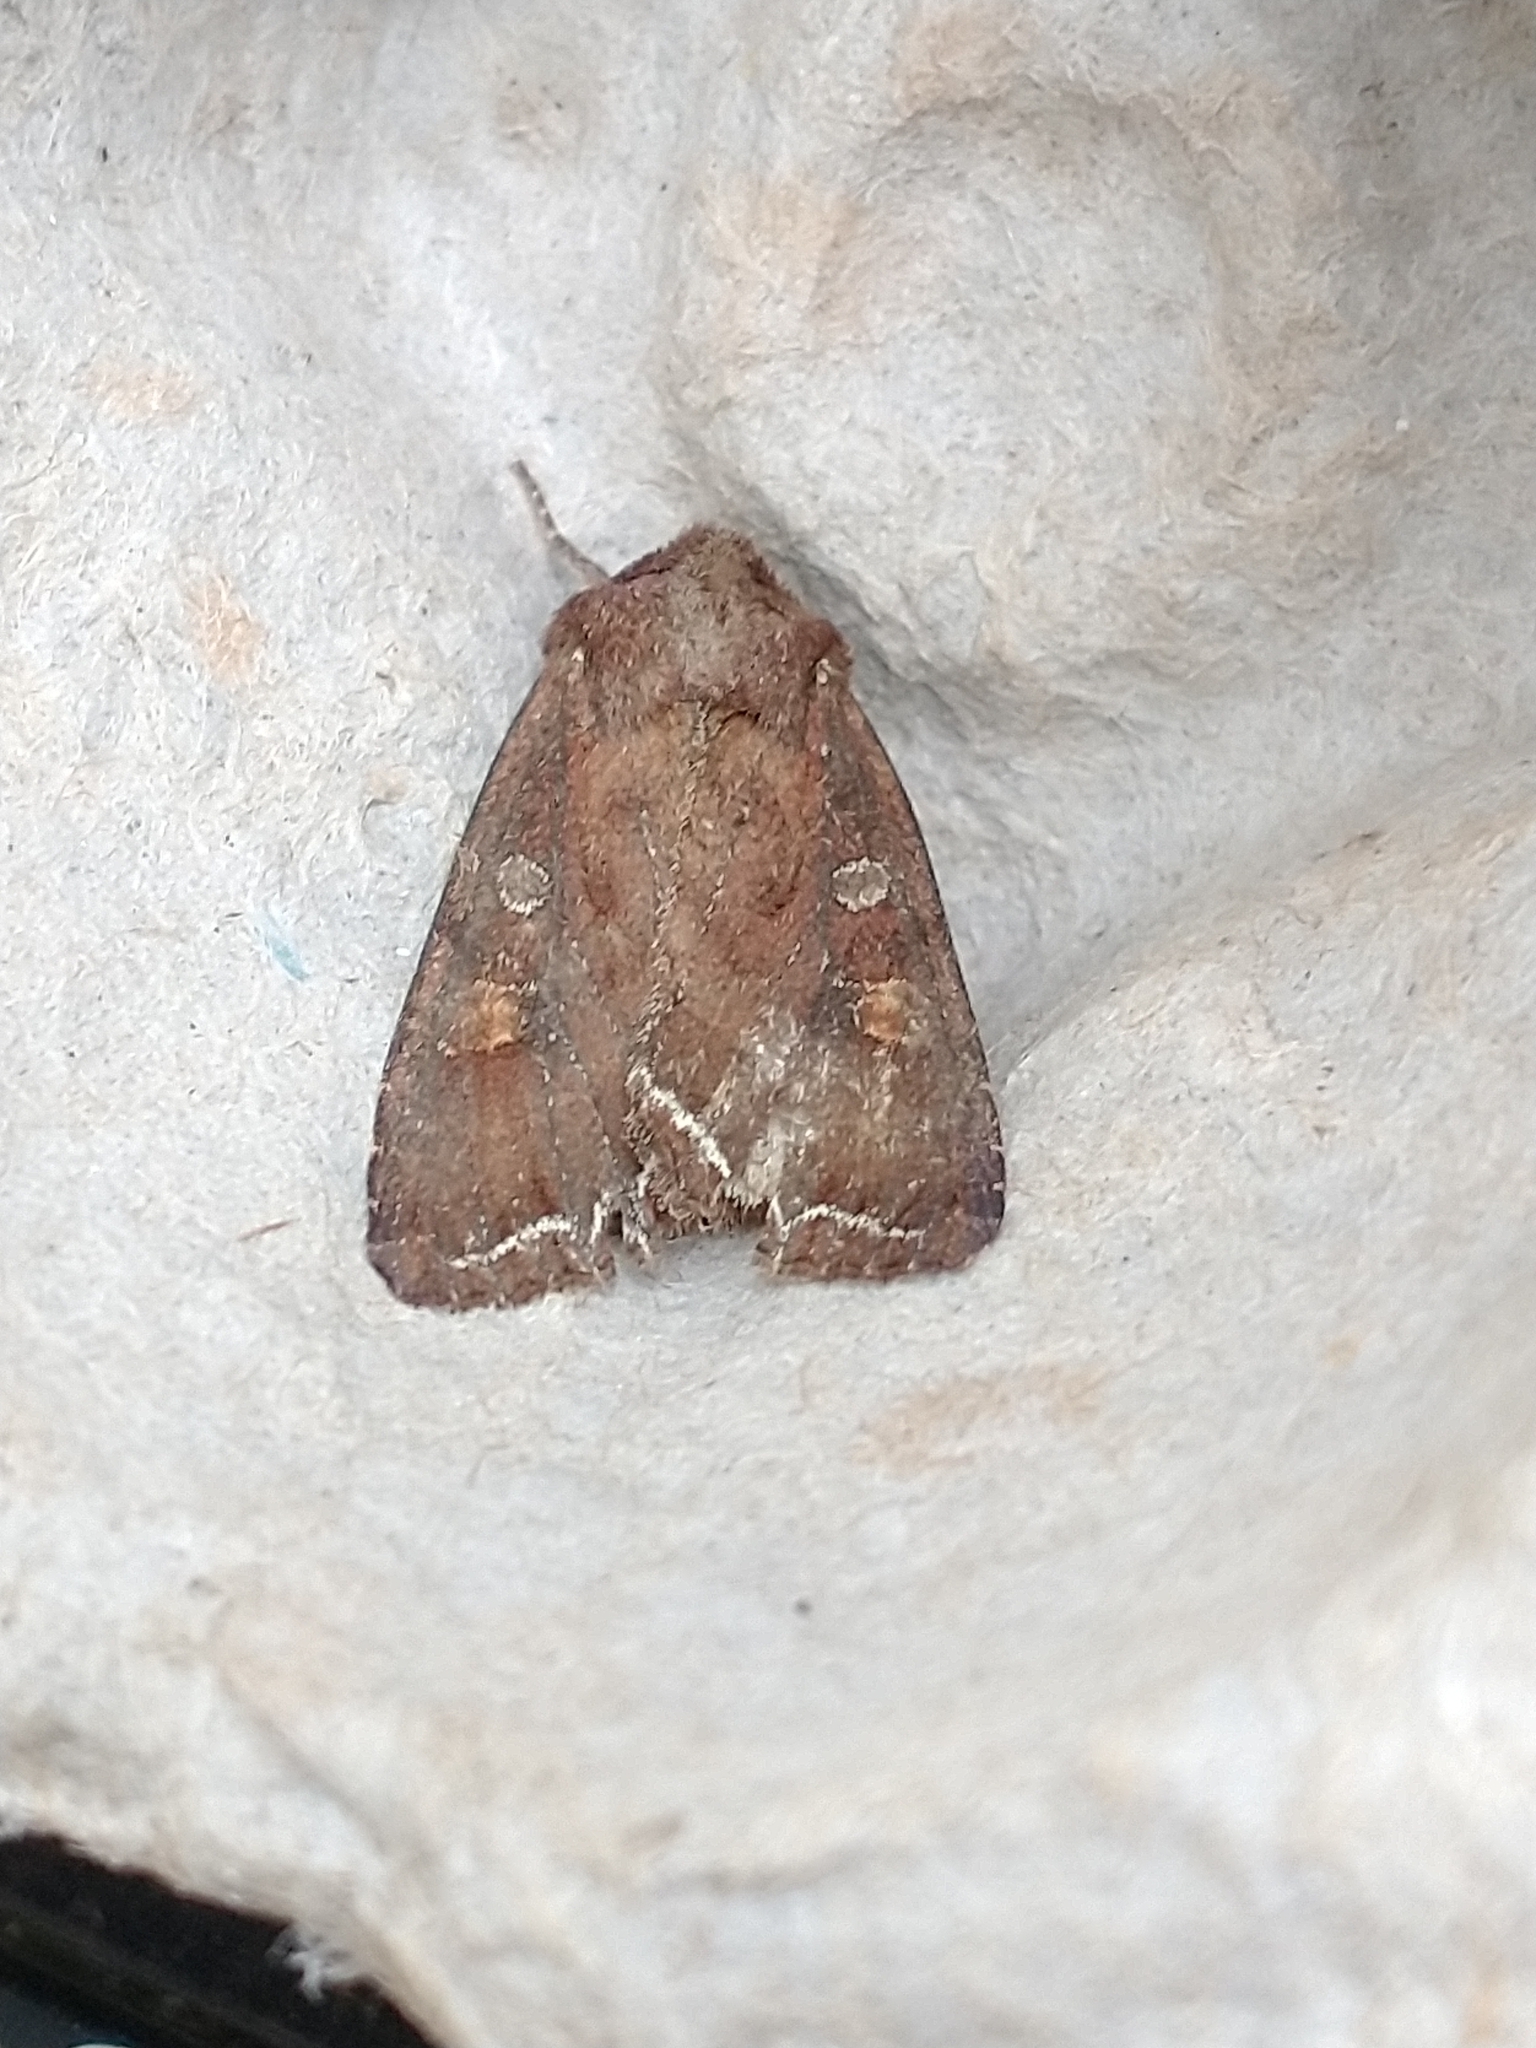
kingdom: Animalia
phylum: Arthropoda
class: Insecta
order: Lepidoptera
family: Noctuidae
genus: Lacanobia
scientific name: Lacanobia oleracea
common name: Bright-line brown-eye
